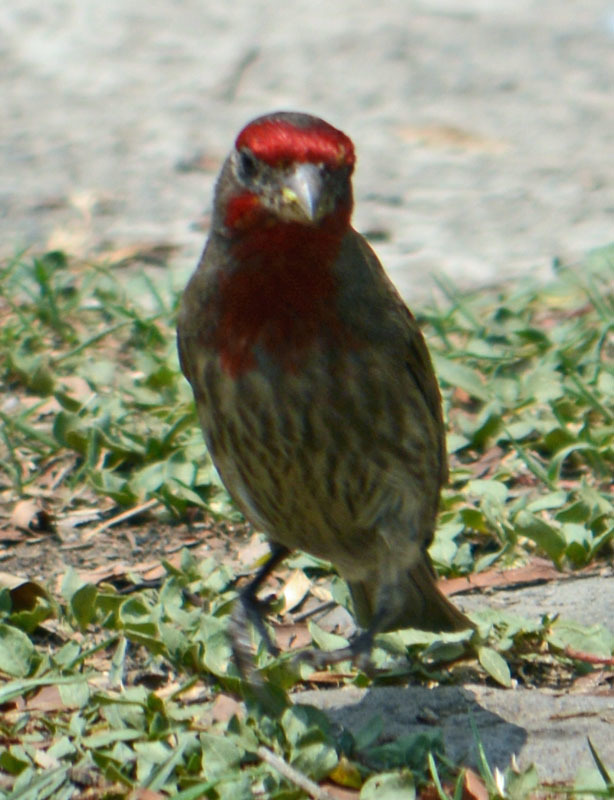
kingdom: Animalia
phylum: Chordata
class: Aves
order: Passeriformes
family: Fringillidae
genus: Haemorhous
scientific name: Haemorhous mexicanus
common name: House finch
